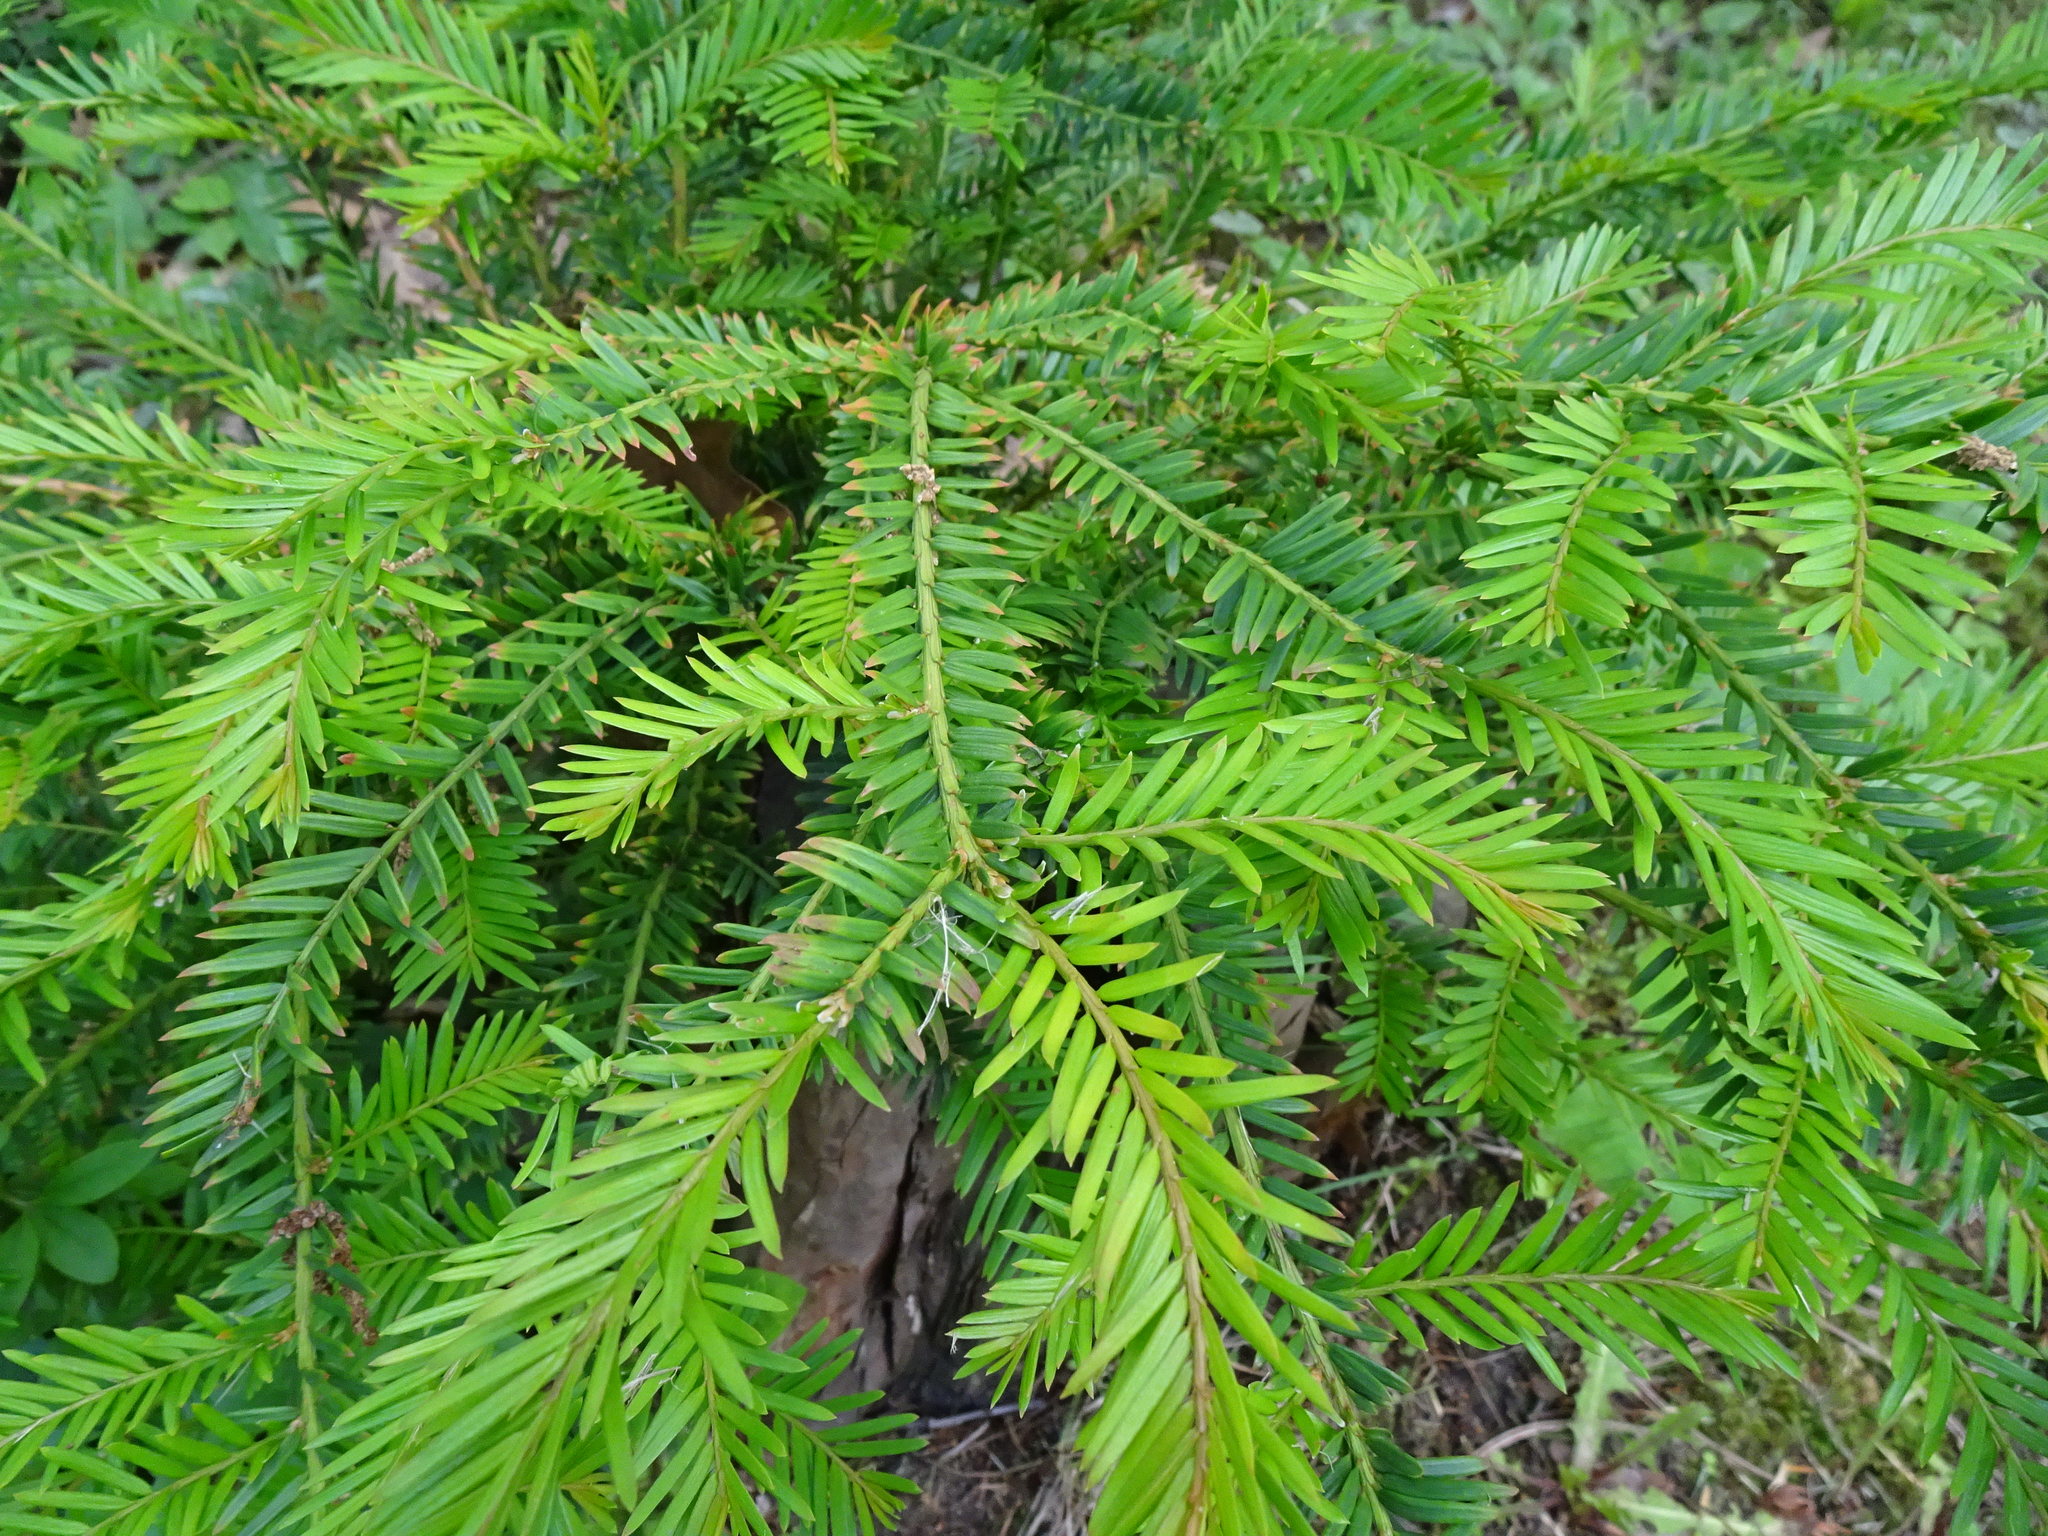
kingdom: Plantae
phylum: Tracheophyta
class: Pinopsida
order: Pinales
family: Taxaceae
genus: Taxus
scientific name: Taxus baccata
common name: Yew
